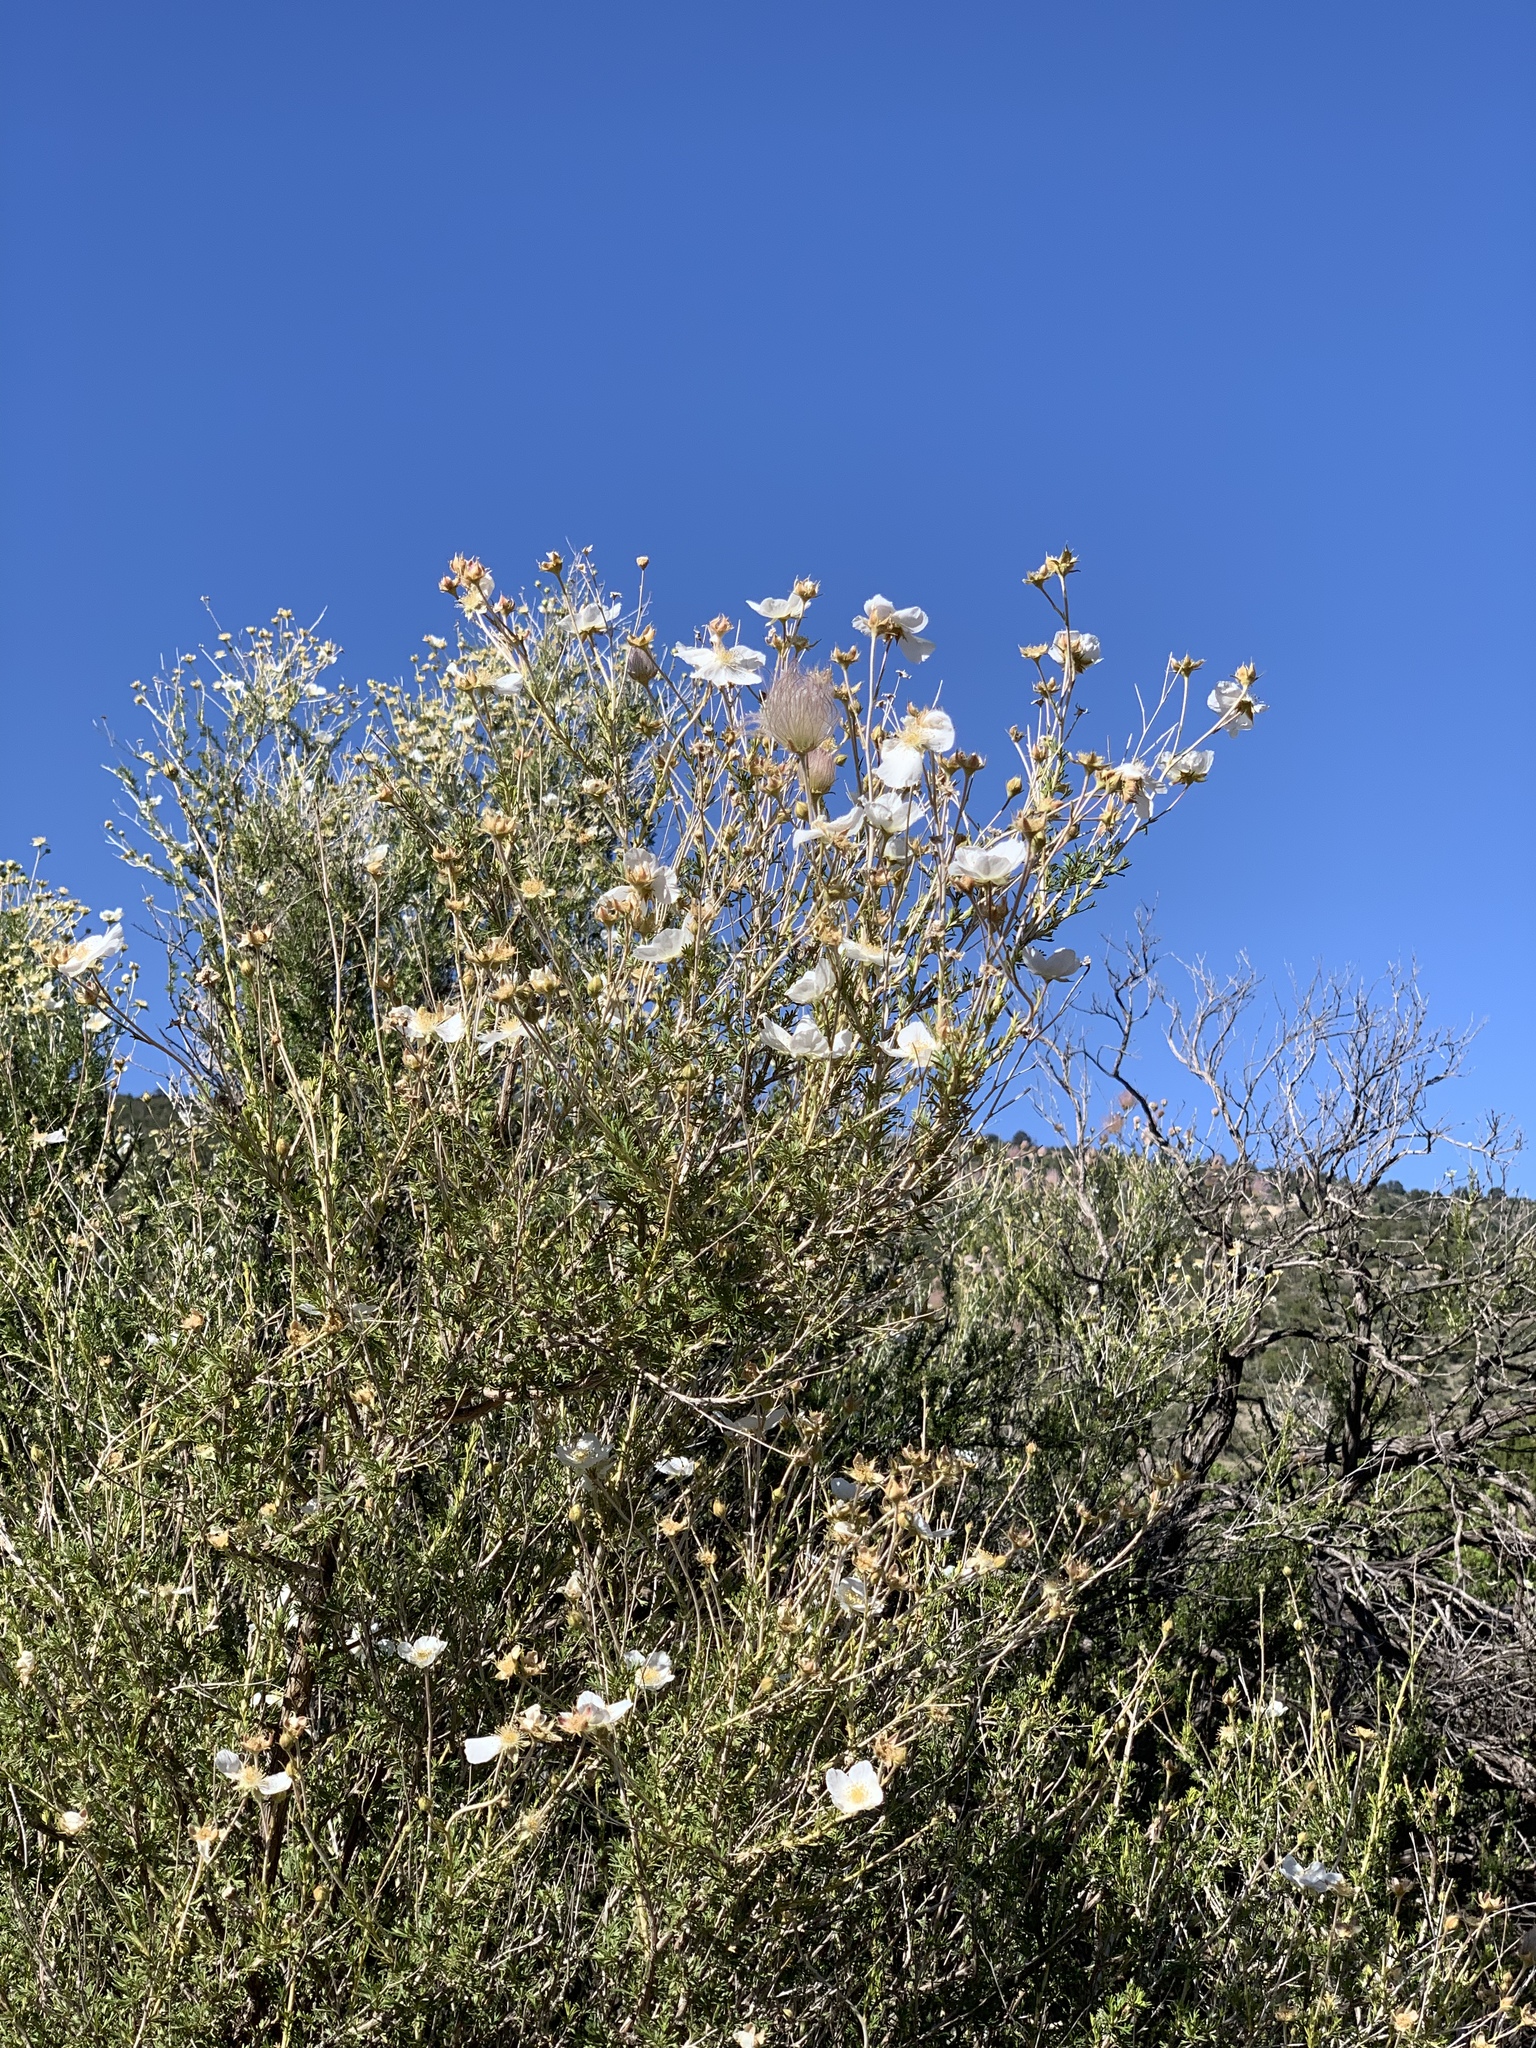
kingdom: Plantae
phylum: Tracheophyta
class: Magnoliopsida
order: Rosales
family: Rosaceae
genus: Fallugia
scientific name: Fallugia paradoxa
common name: Apache-plume
